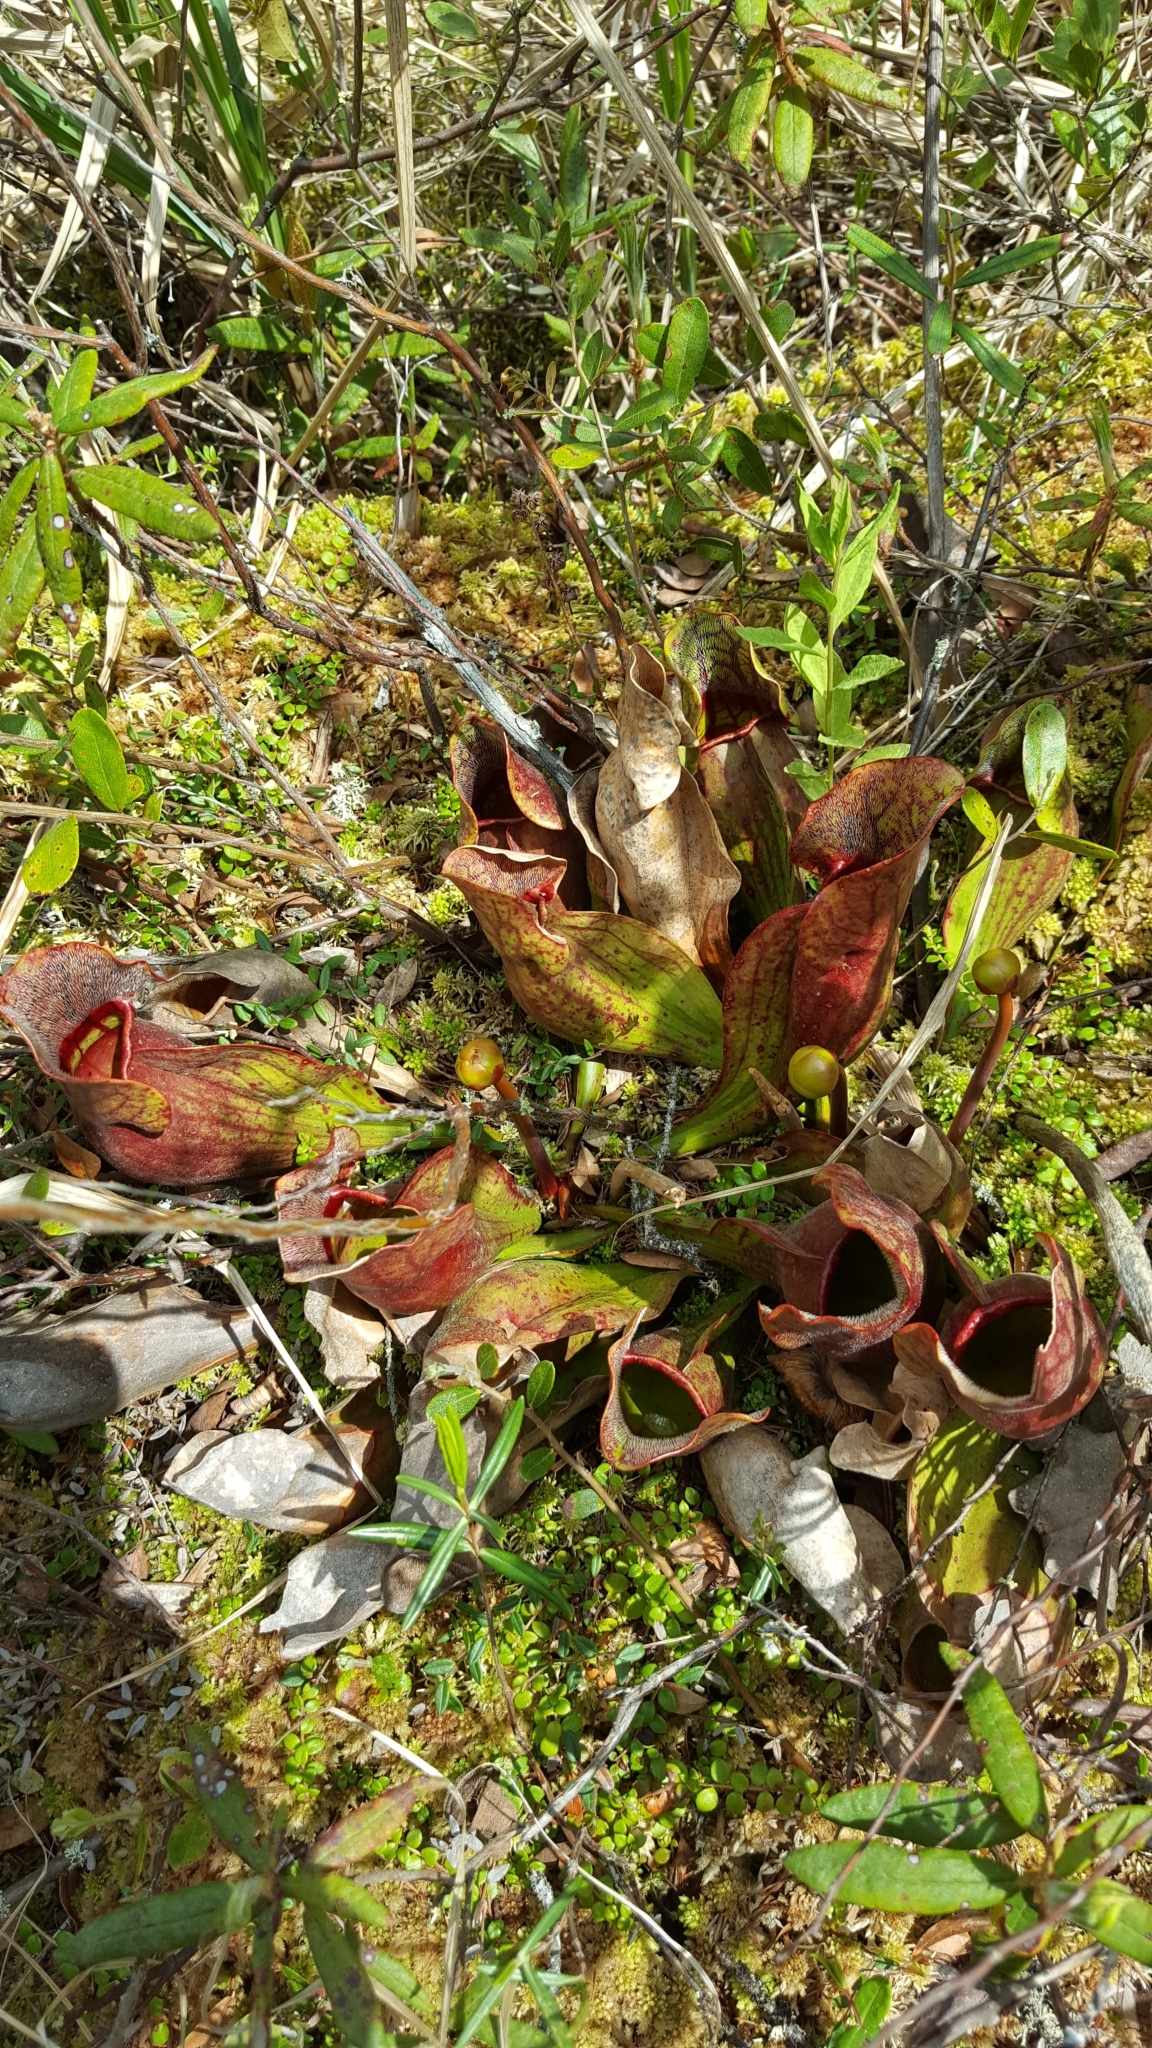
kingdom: Plantae
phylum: Tracheophyta
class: Magnoliopsida
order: Ericales
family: Sarraceniaceae
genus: Sarracenia
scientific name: Sarracenia purpurea
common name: Pitcherplant
